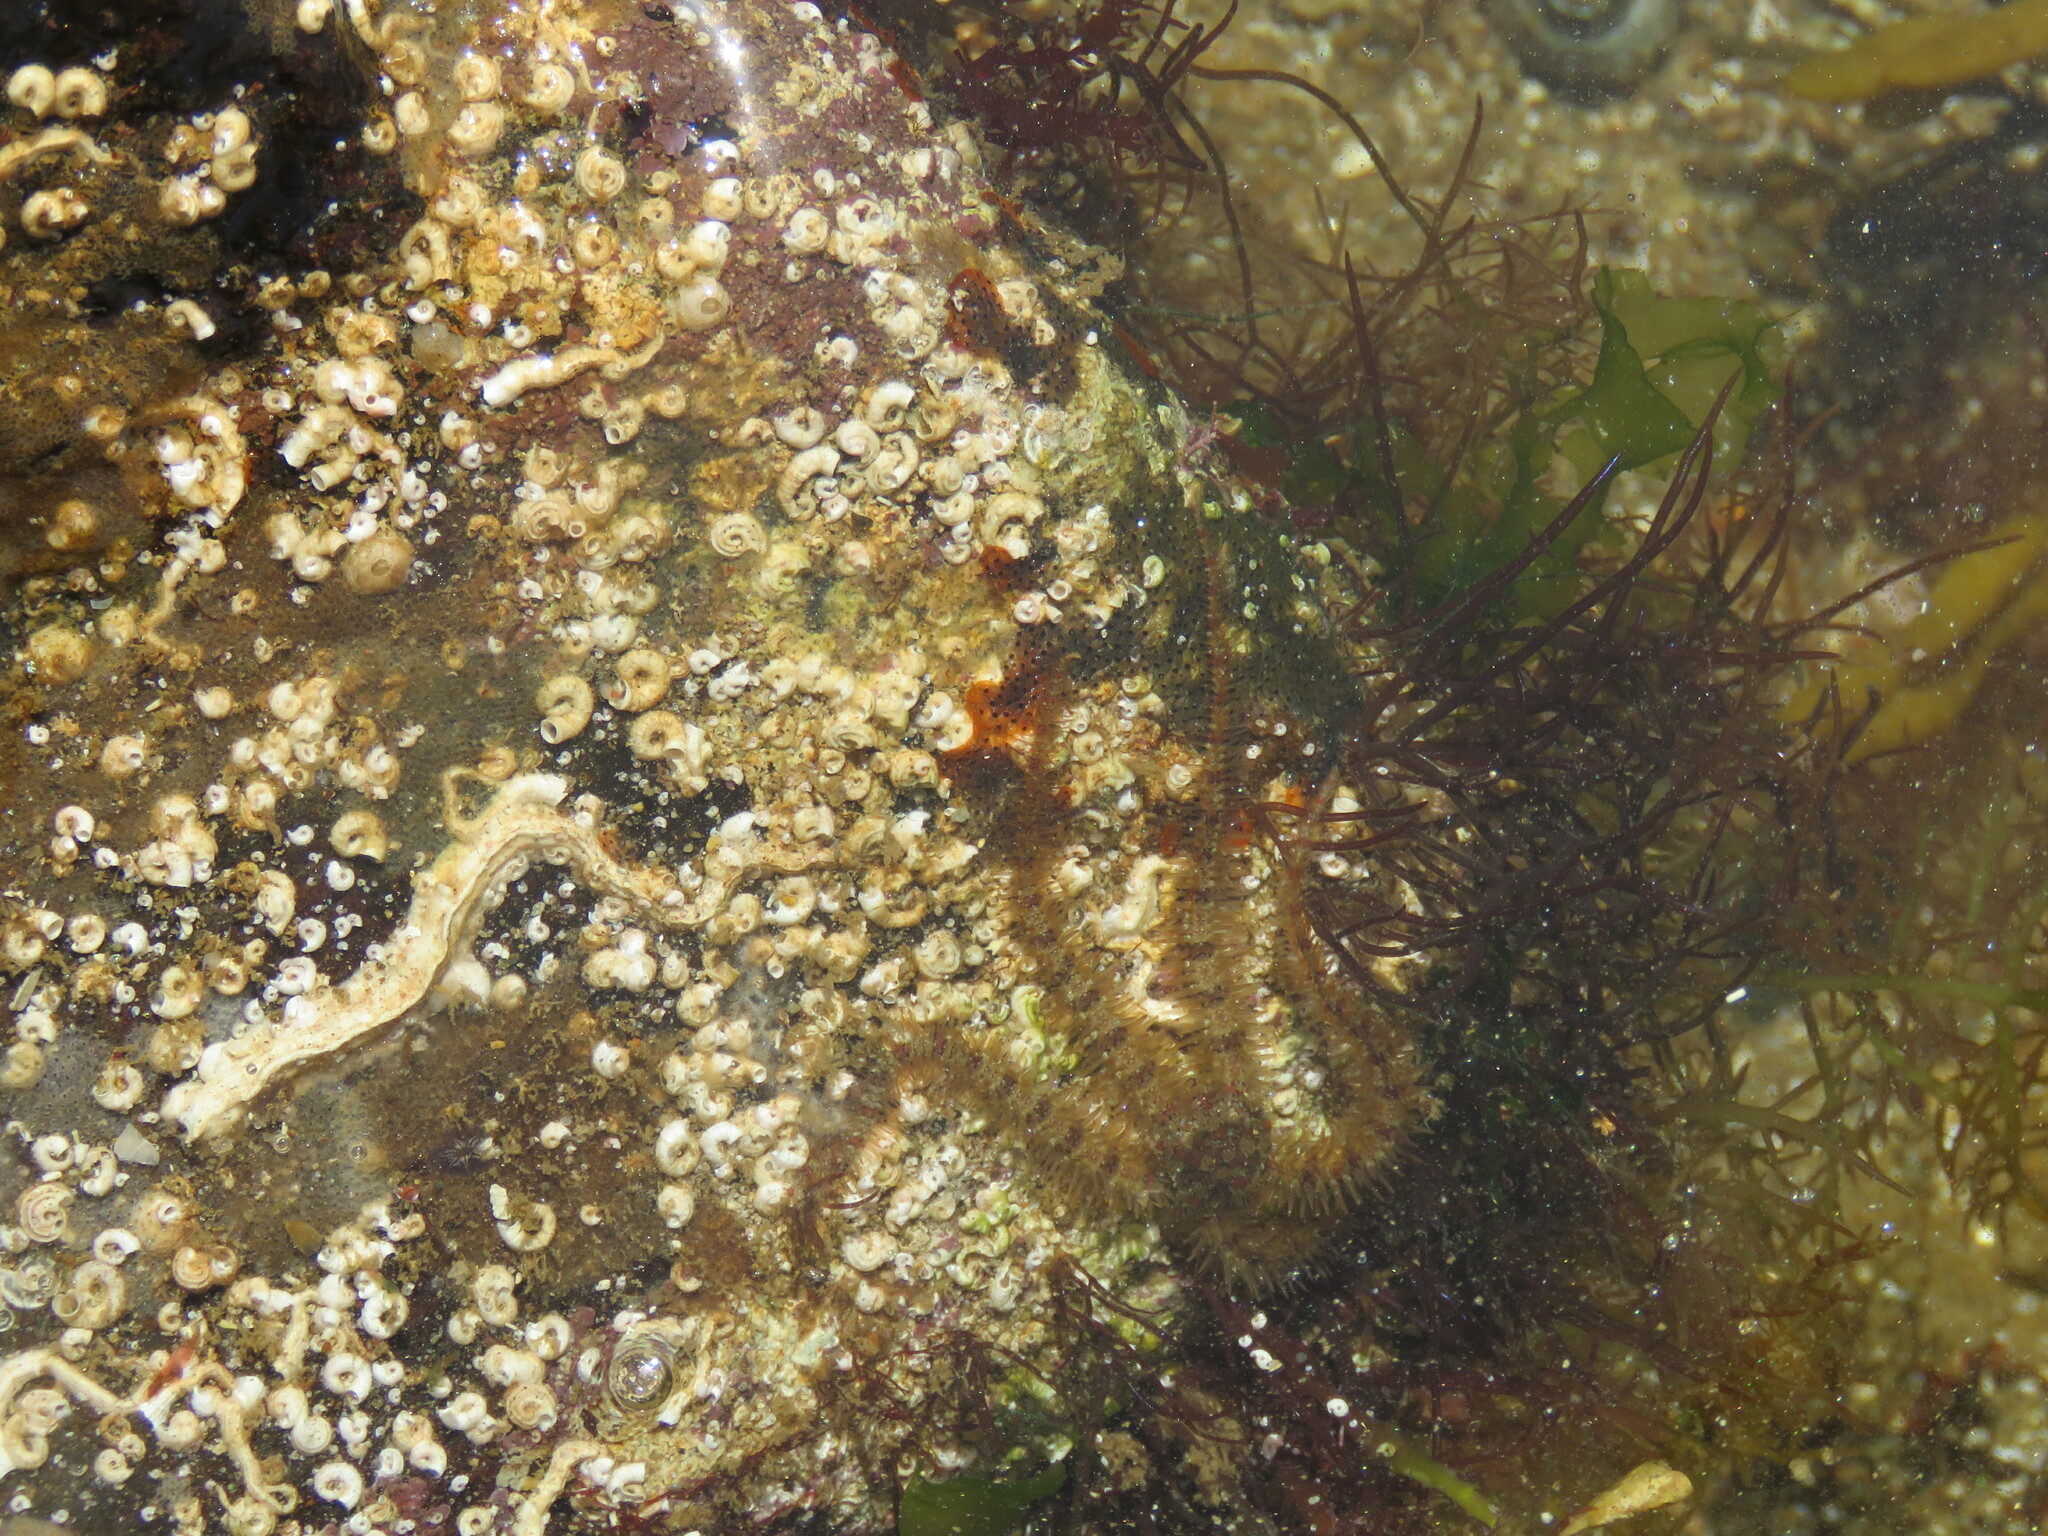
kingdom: Animalia
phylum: Echinodermata
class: Ophiuroidea
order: Amphilepidida
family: Ophiotrichidae
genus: Ophiothrix
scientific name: Ophiothrix fragilis
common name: Common brittlestar
